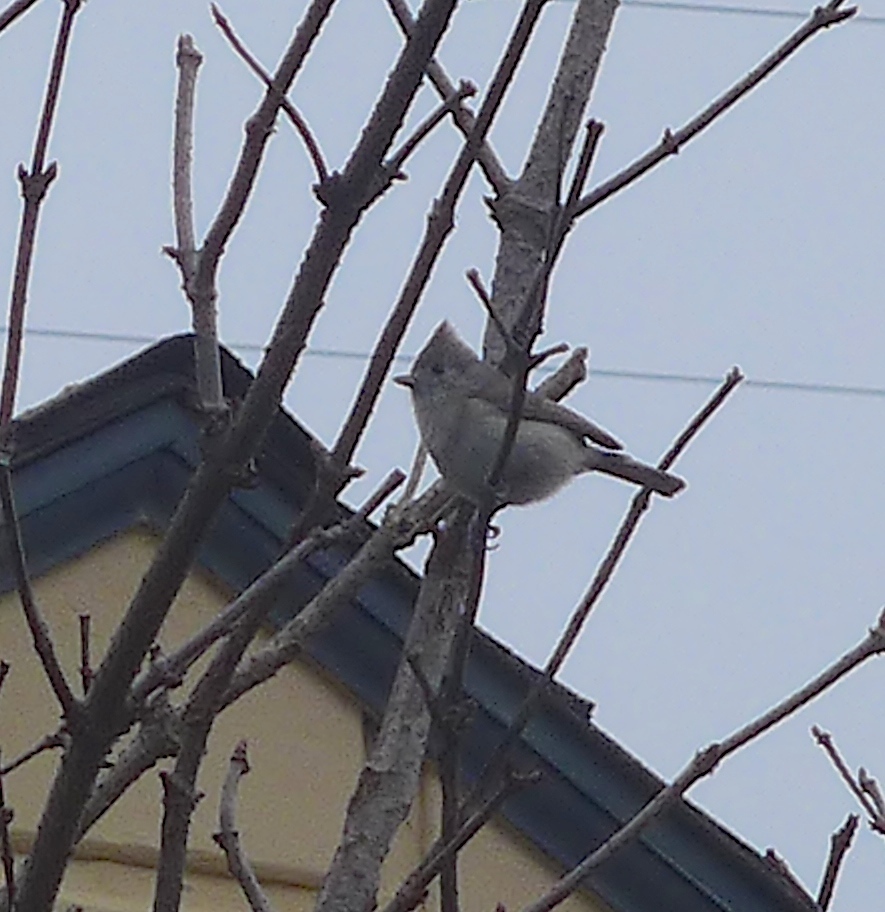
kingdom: Animalia
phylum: Chordata
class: Aves
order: Passeriformes
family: Paridae
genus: Baeolophus
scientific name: Baeolophus inornatus
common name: Oak titmouse
